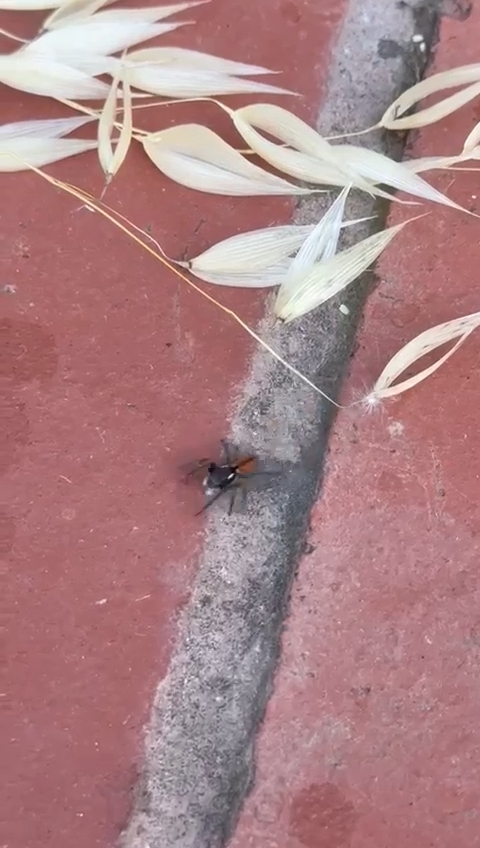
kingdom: Animalia
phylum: Arthropoda
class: Arachnida
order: Araneae
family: Salticidae
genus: Philaeus
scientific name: Philaeus chrysops
